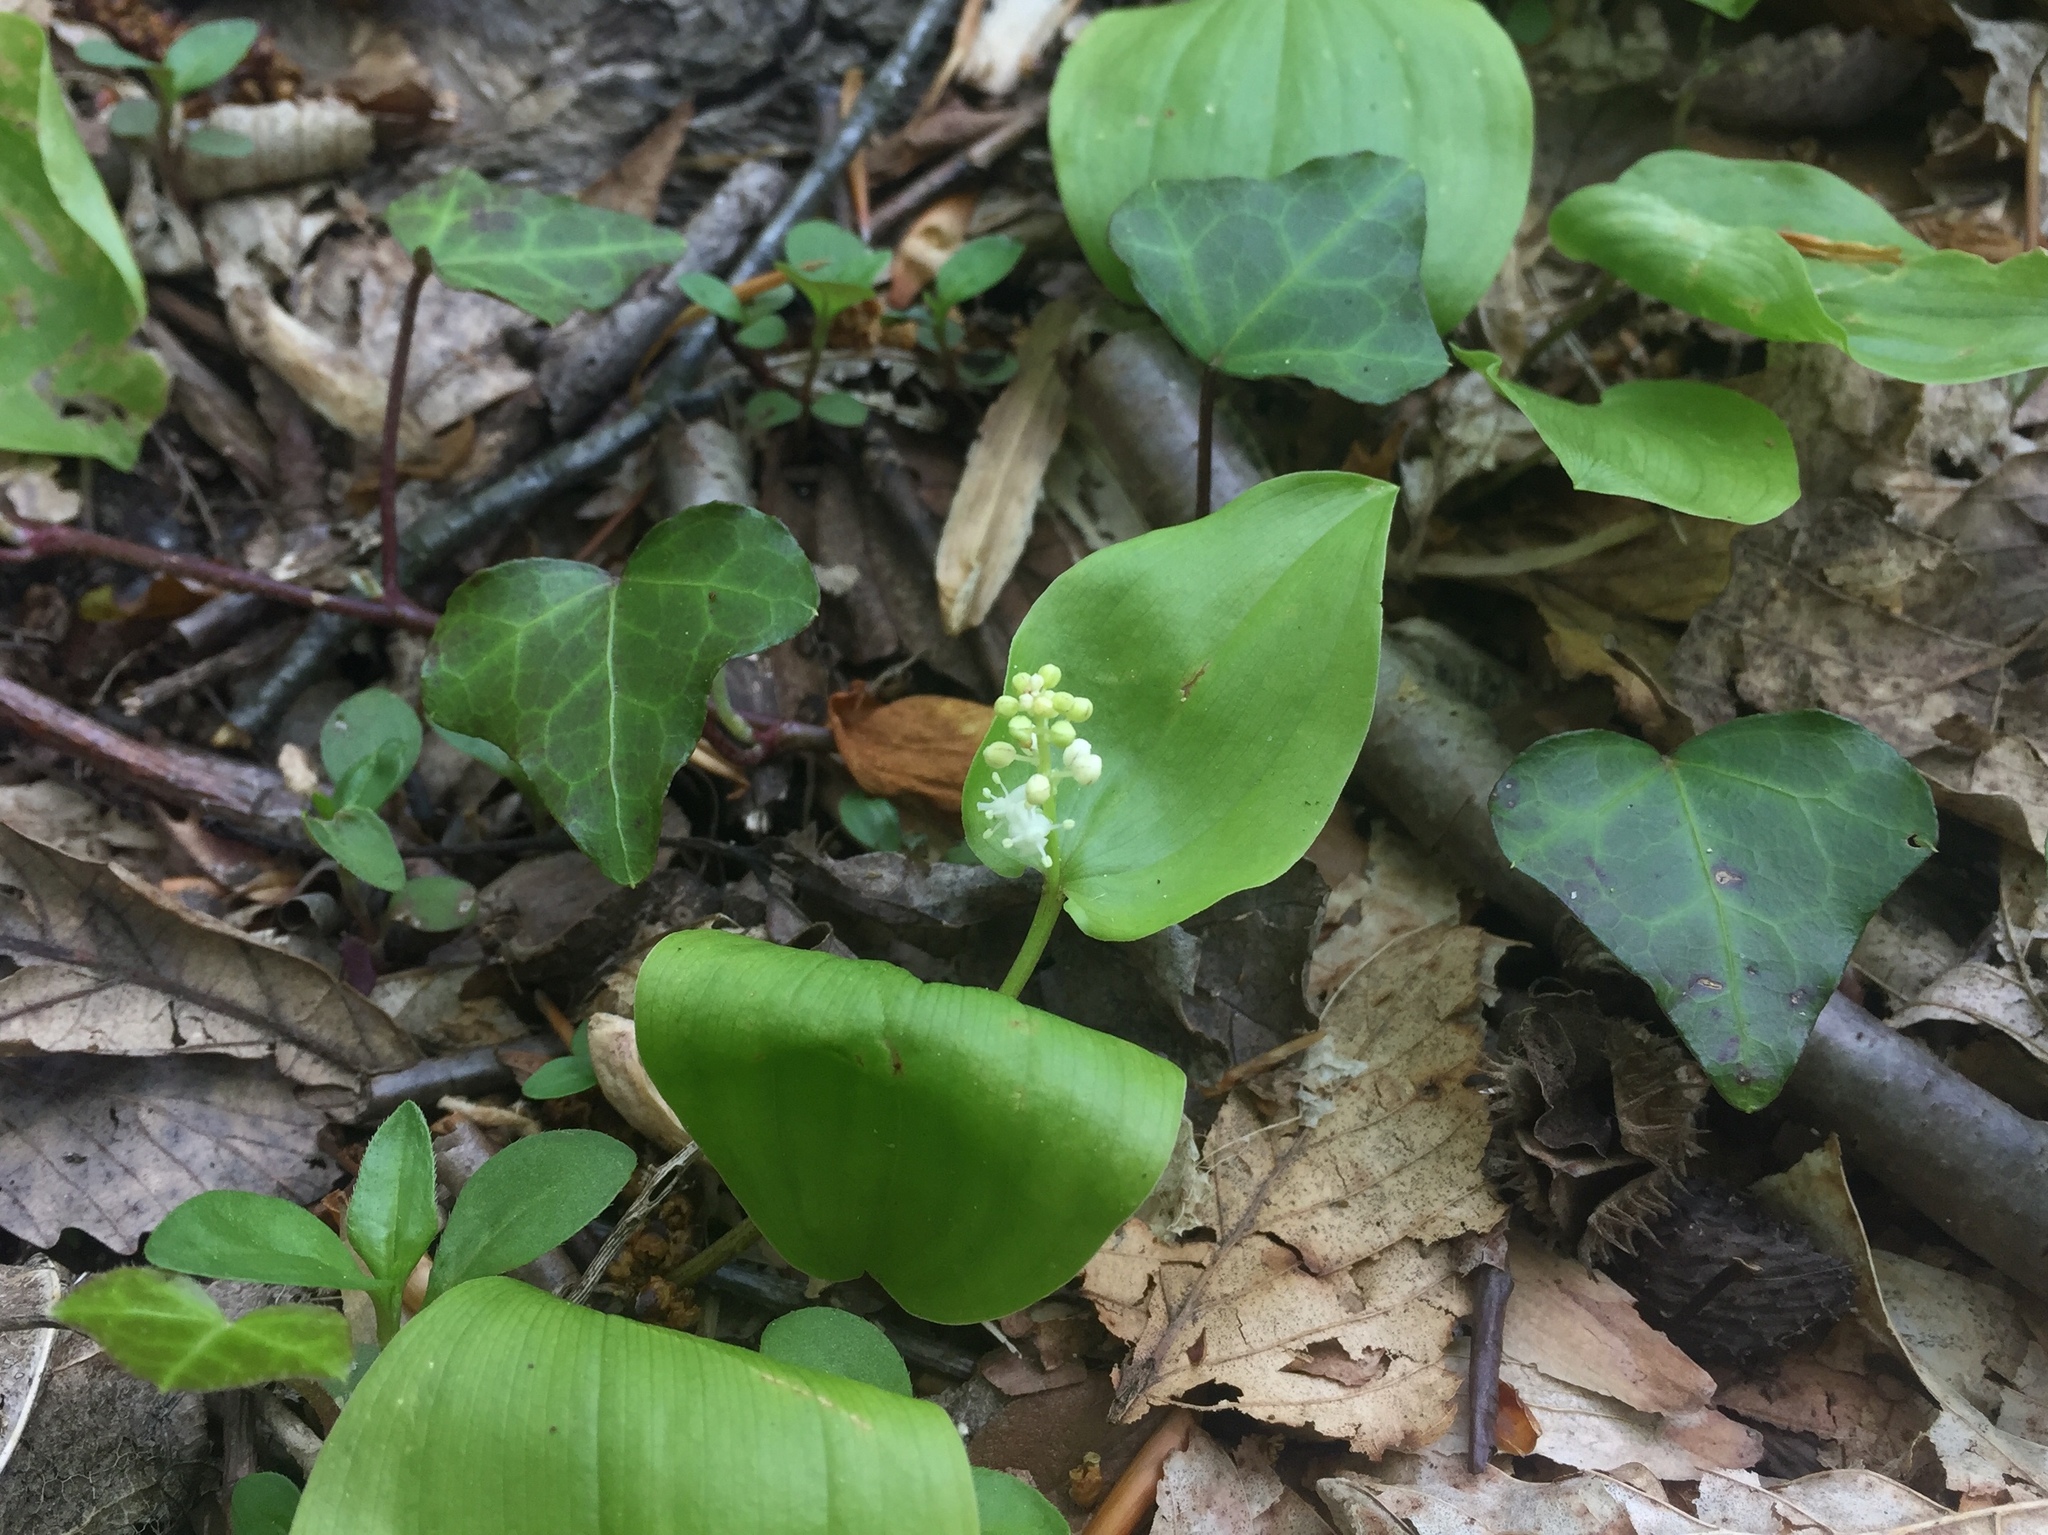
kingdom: Plantae
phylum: Tracheophyta
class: Liliopsida
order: Asparagales
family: Asparagaceae
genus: Maianthemum
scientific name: Maianthemum canadense
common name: False lily-of-the-valley
